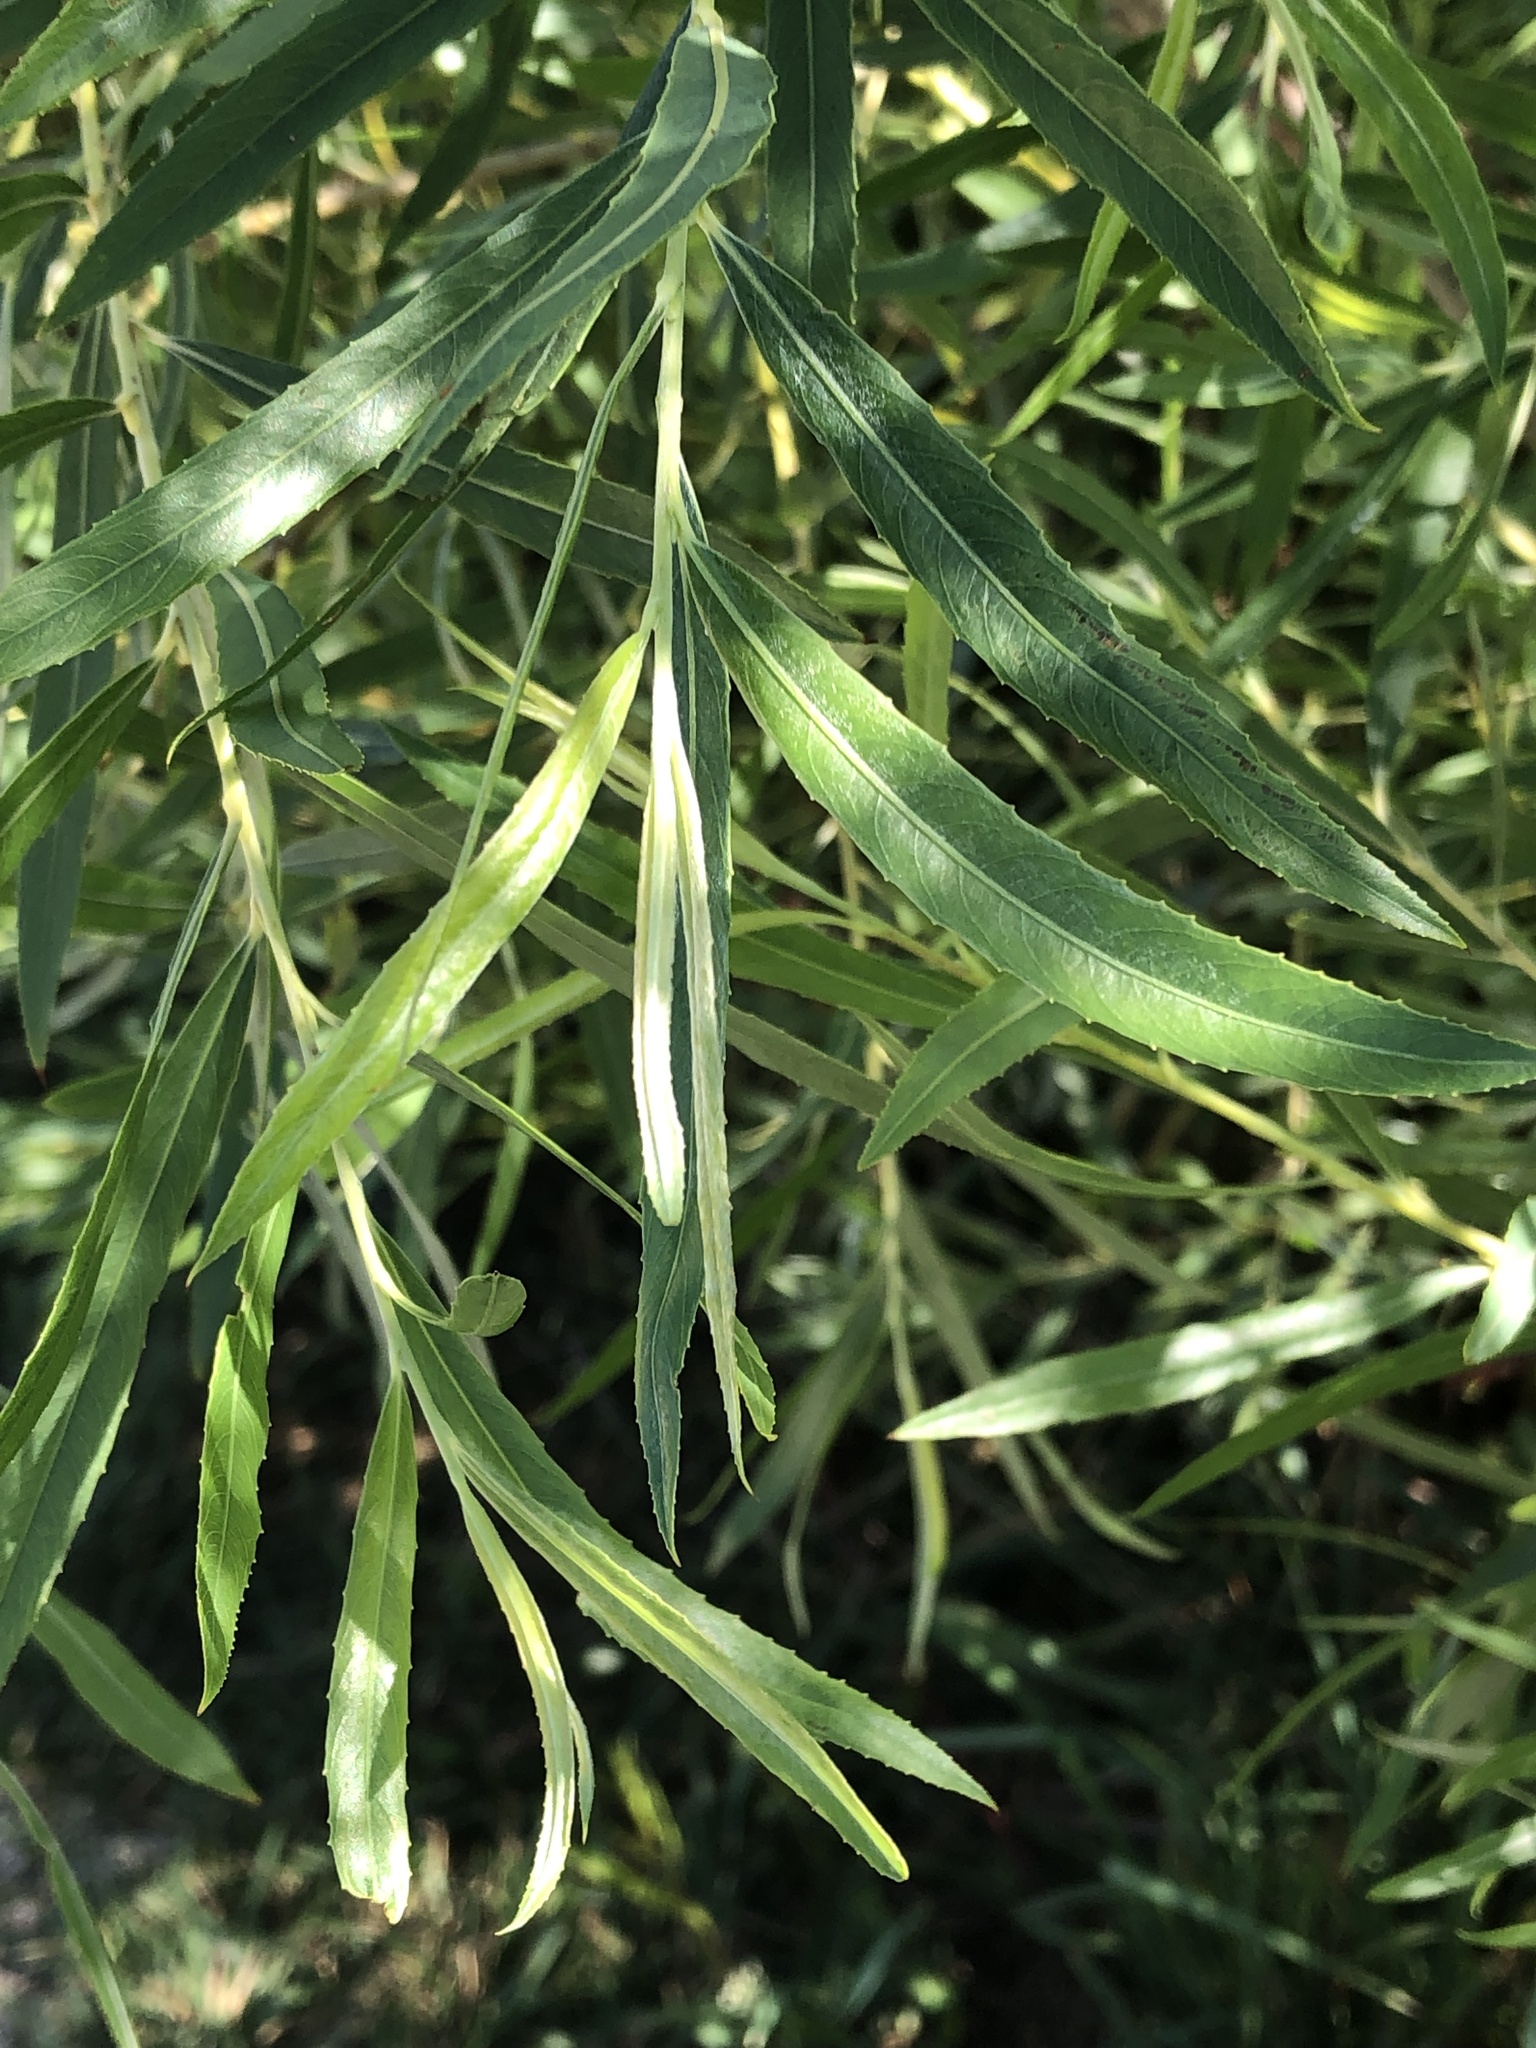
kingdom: Plantae
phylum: Tracheophyta
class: Magnoliopsida
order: Malpighiales
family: Salicaceae
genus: Salix
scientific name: Salix interior
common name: Sandbar willow
